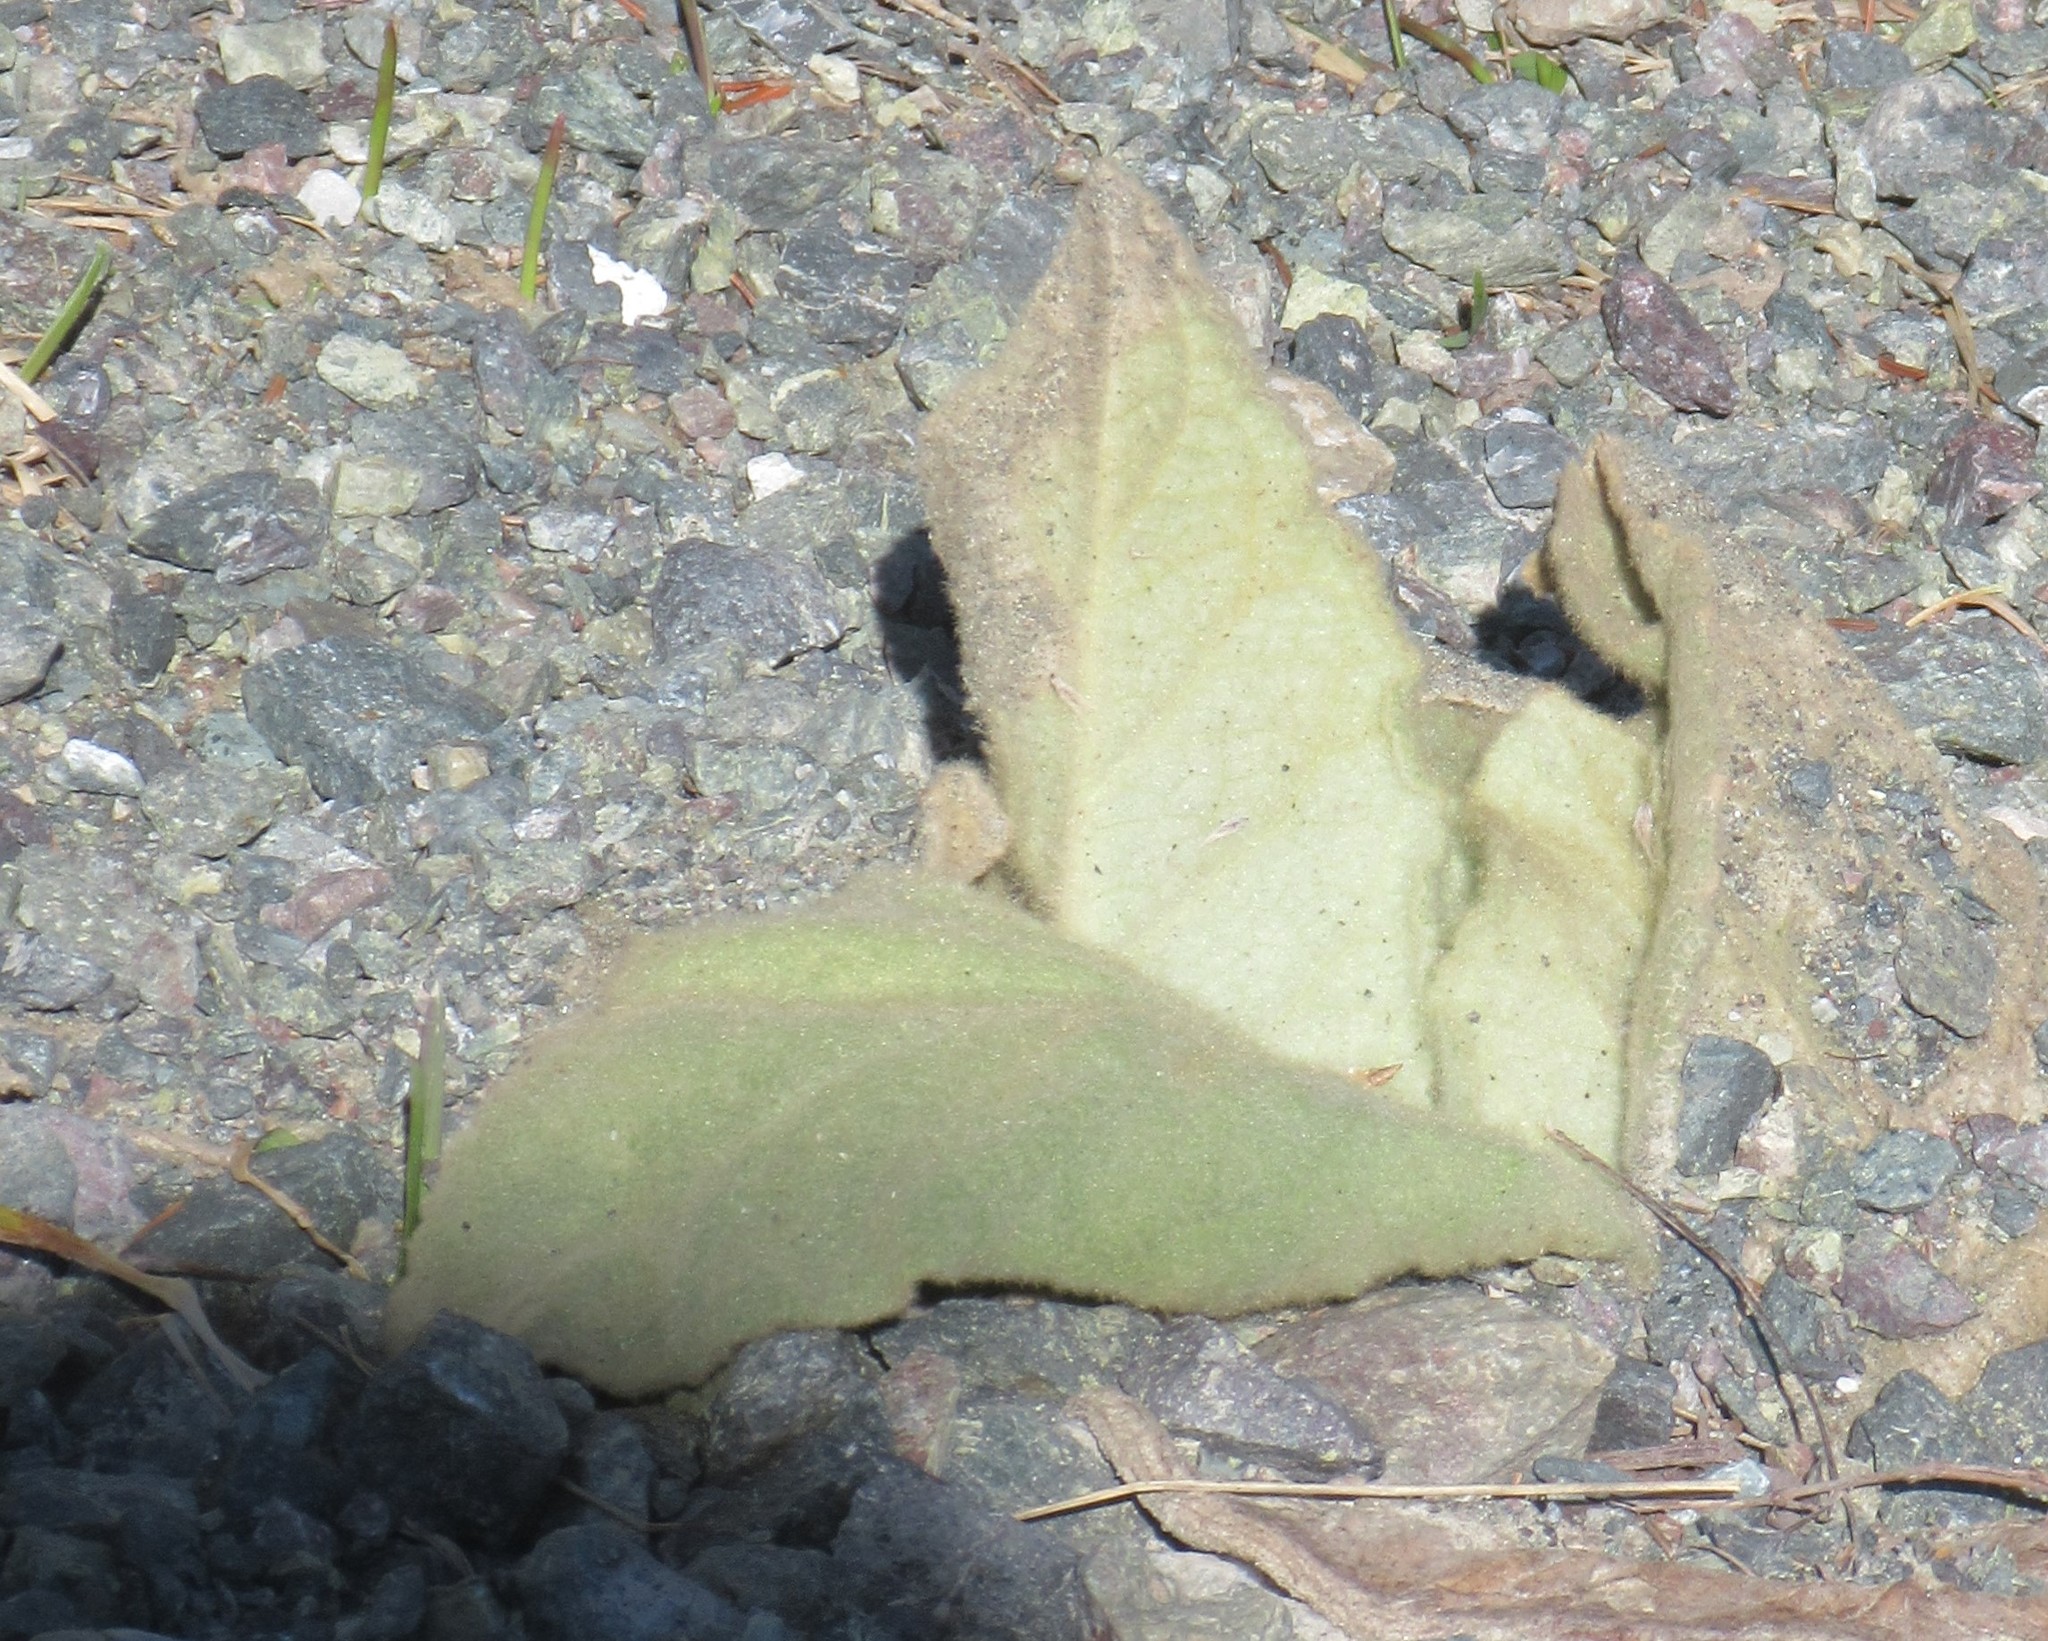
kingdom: Plantae
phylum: Tracheophyta
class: Magnoliopsida
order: Lamiales
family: Scrophulariaceae
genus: Verbascum
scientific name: Verbascum thapsus
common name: Common mullein
